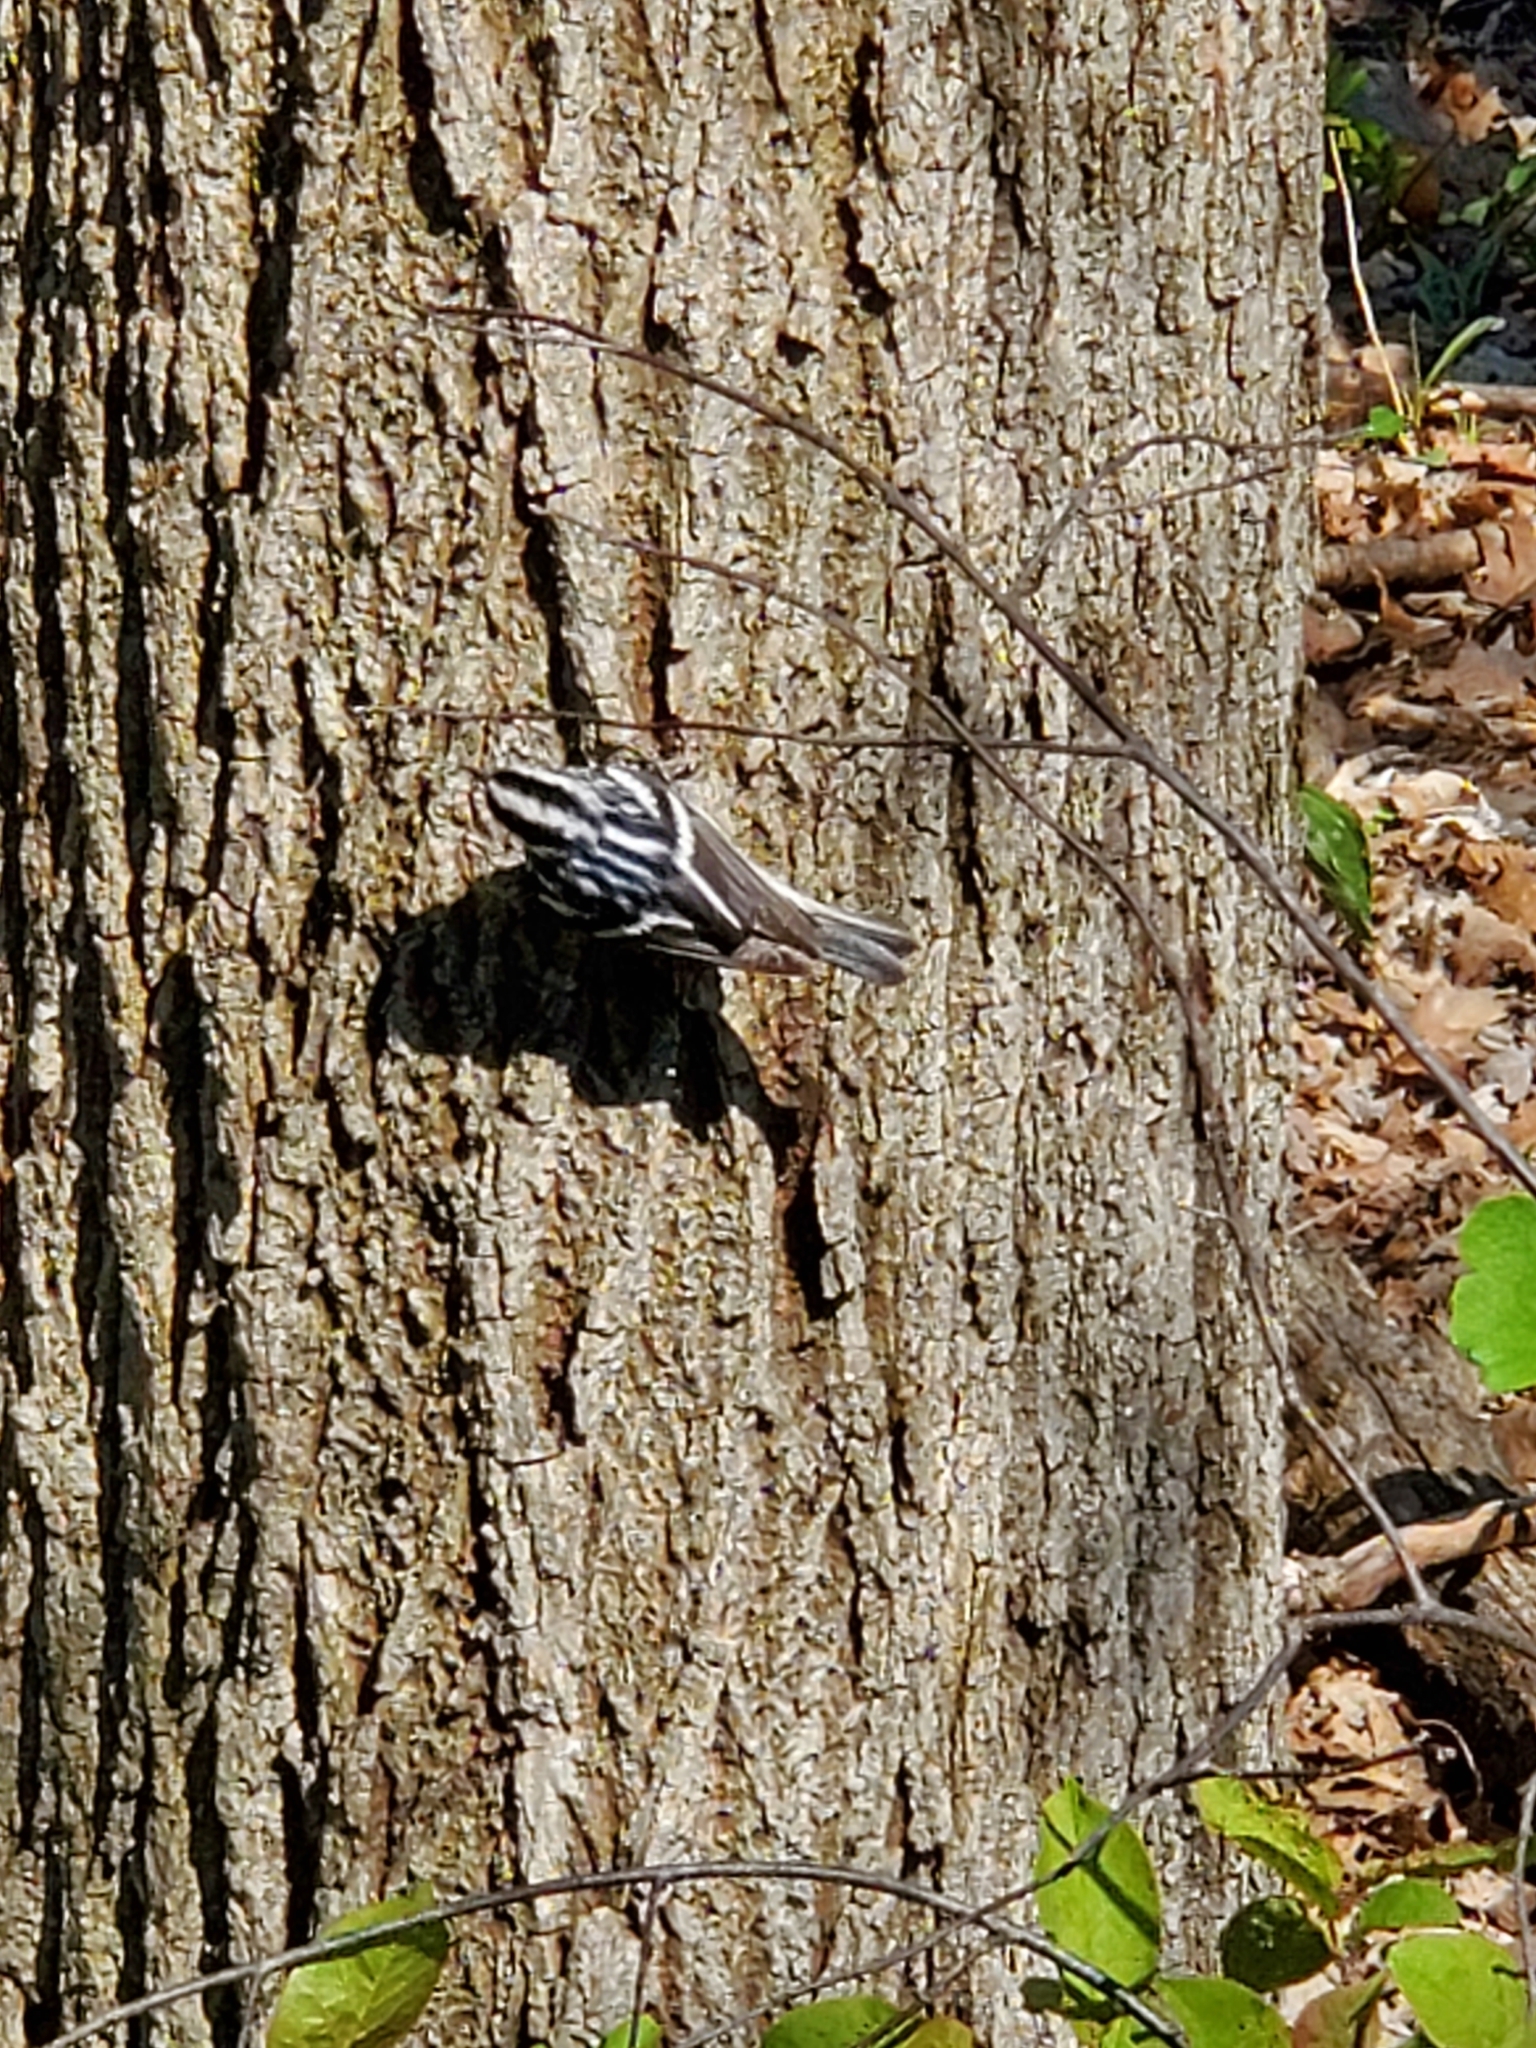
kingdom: Animalia
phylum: Chordata
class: Aves
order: Passeriformes
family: Parulidae
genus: Mniotilta
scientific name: Mniotilta varia
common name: Black-and-white warbler
